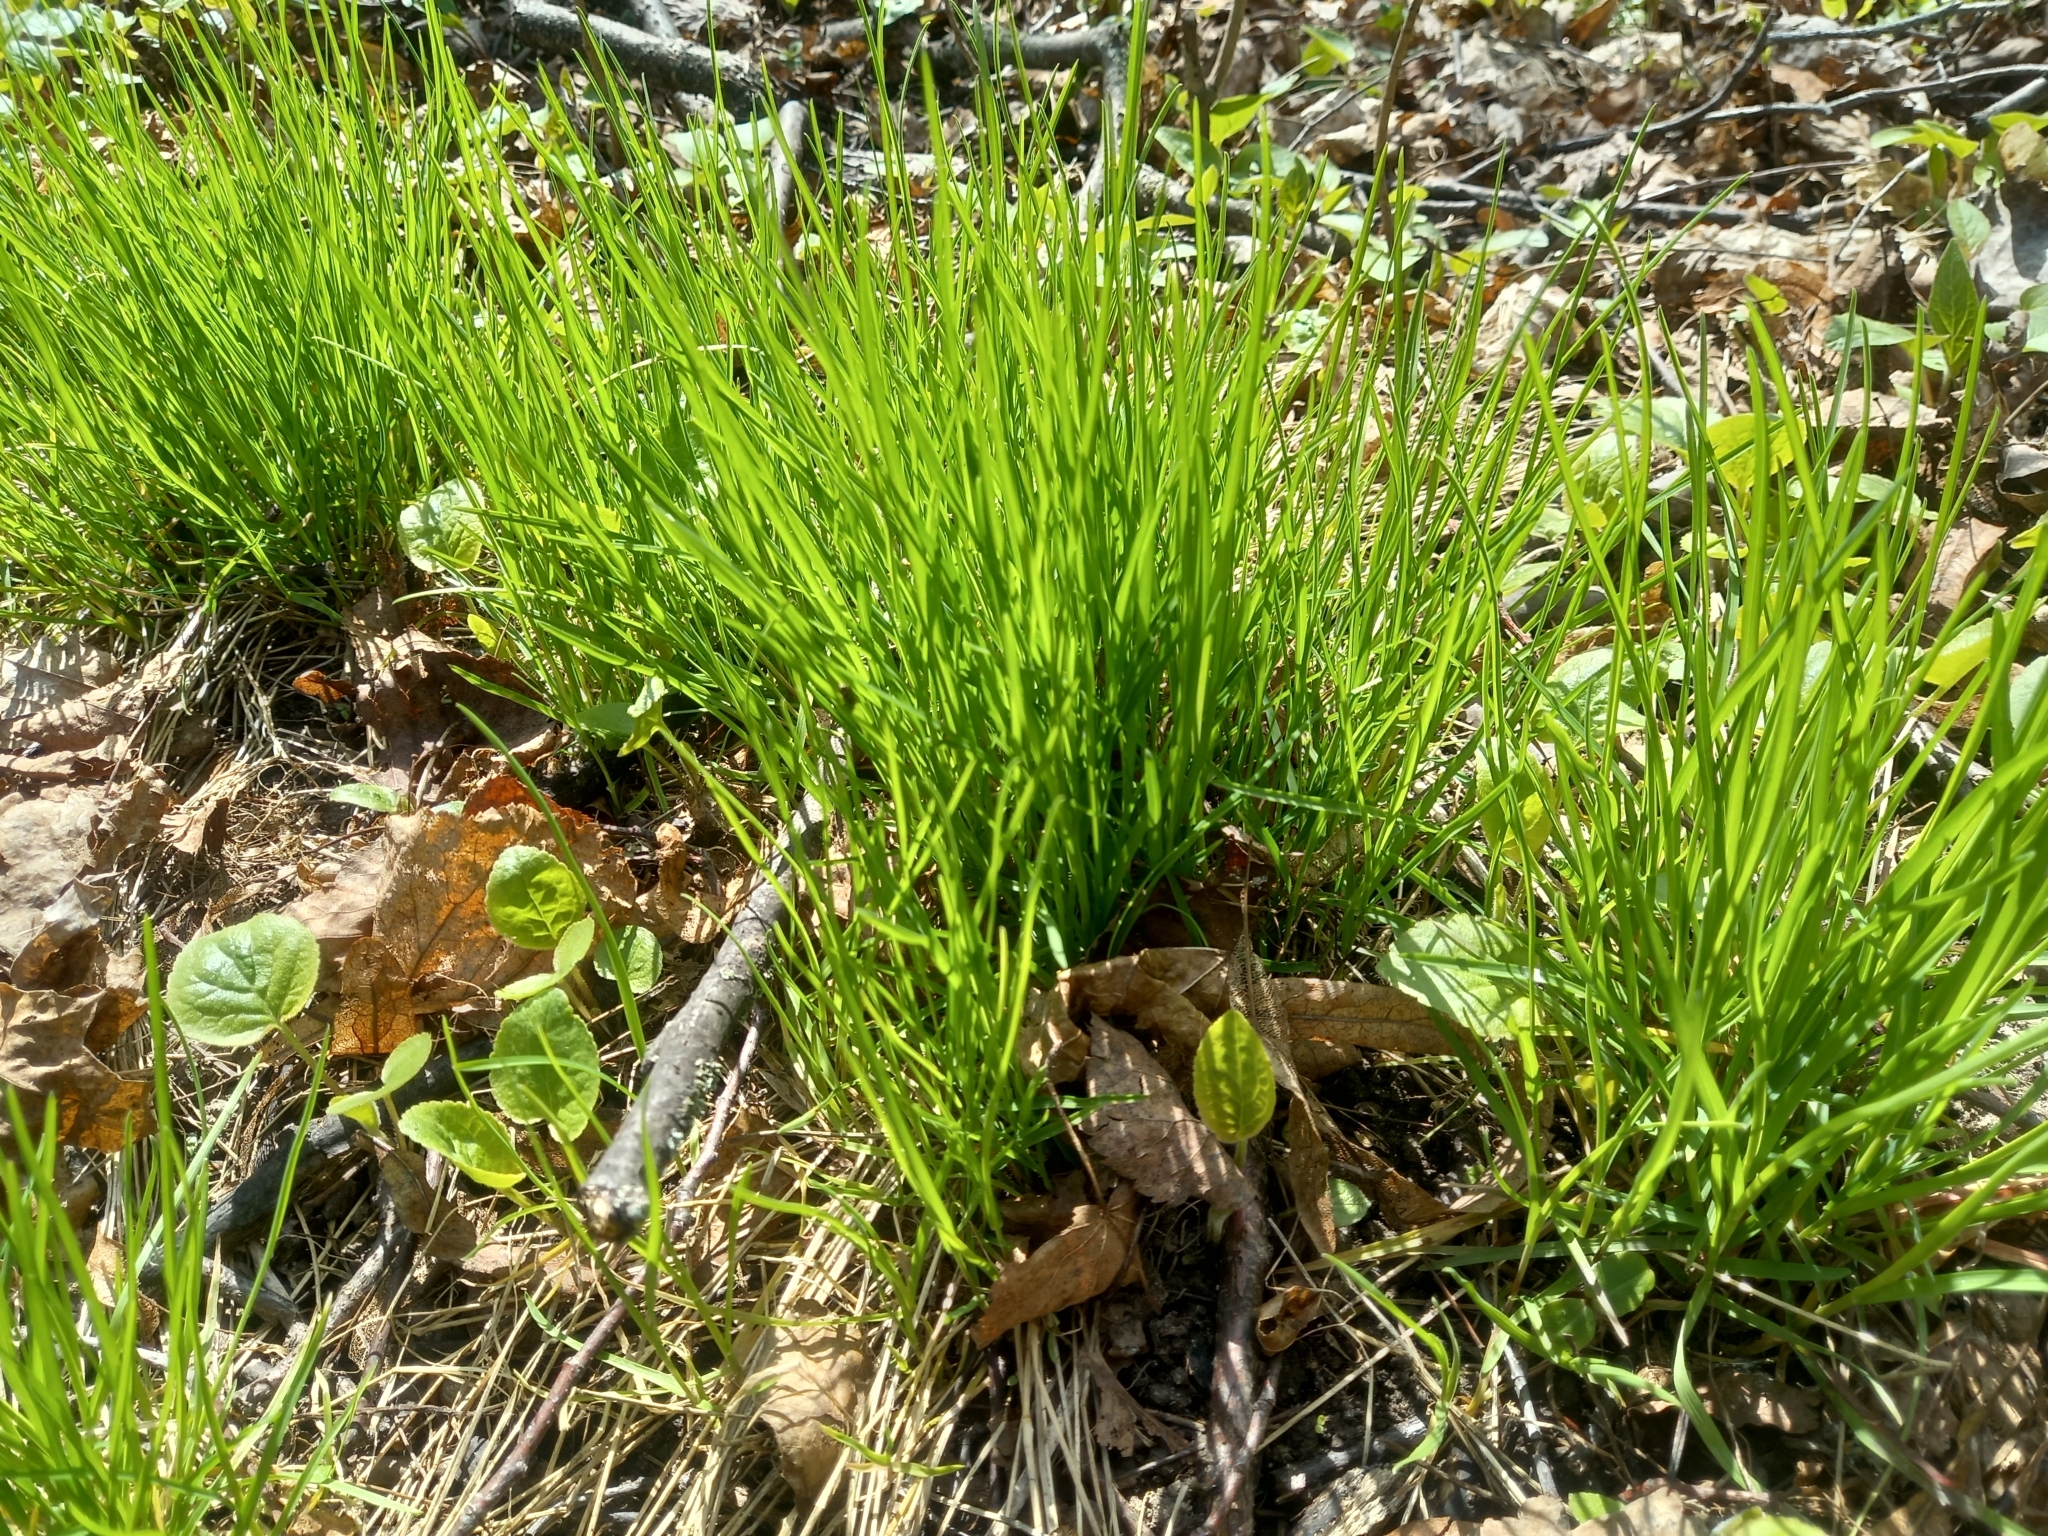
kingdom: Plantae
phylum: Tracheophyta
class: Liliopsida
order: Liliales
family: Liliaceae
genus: Gagea
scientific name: Gagea minima
